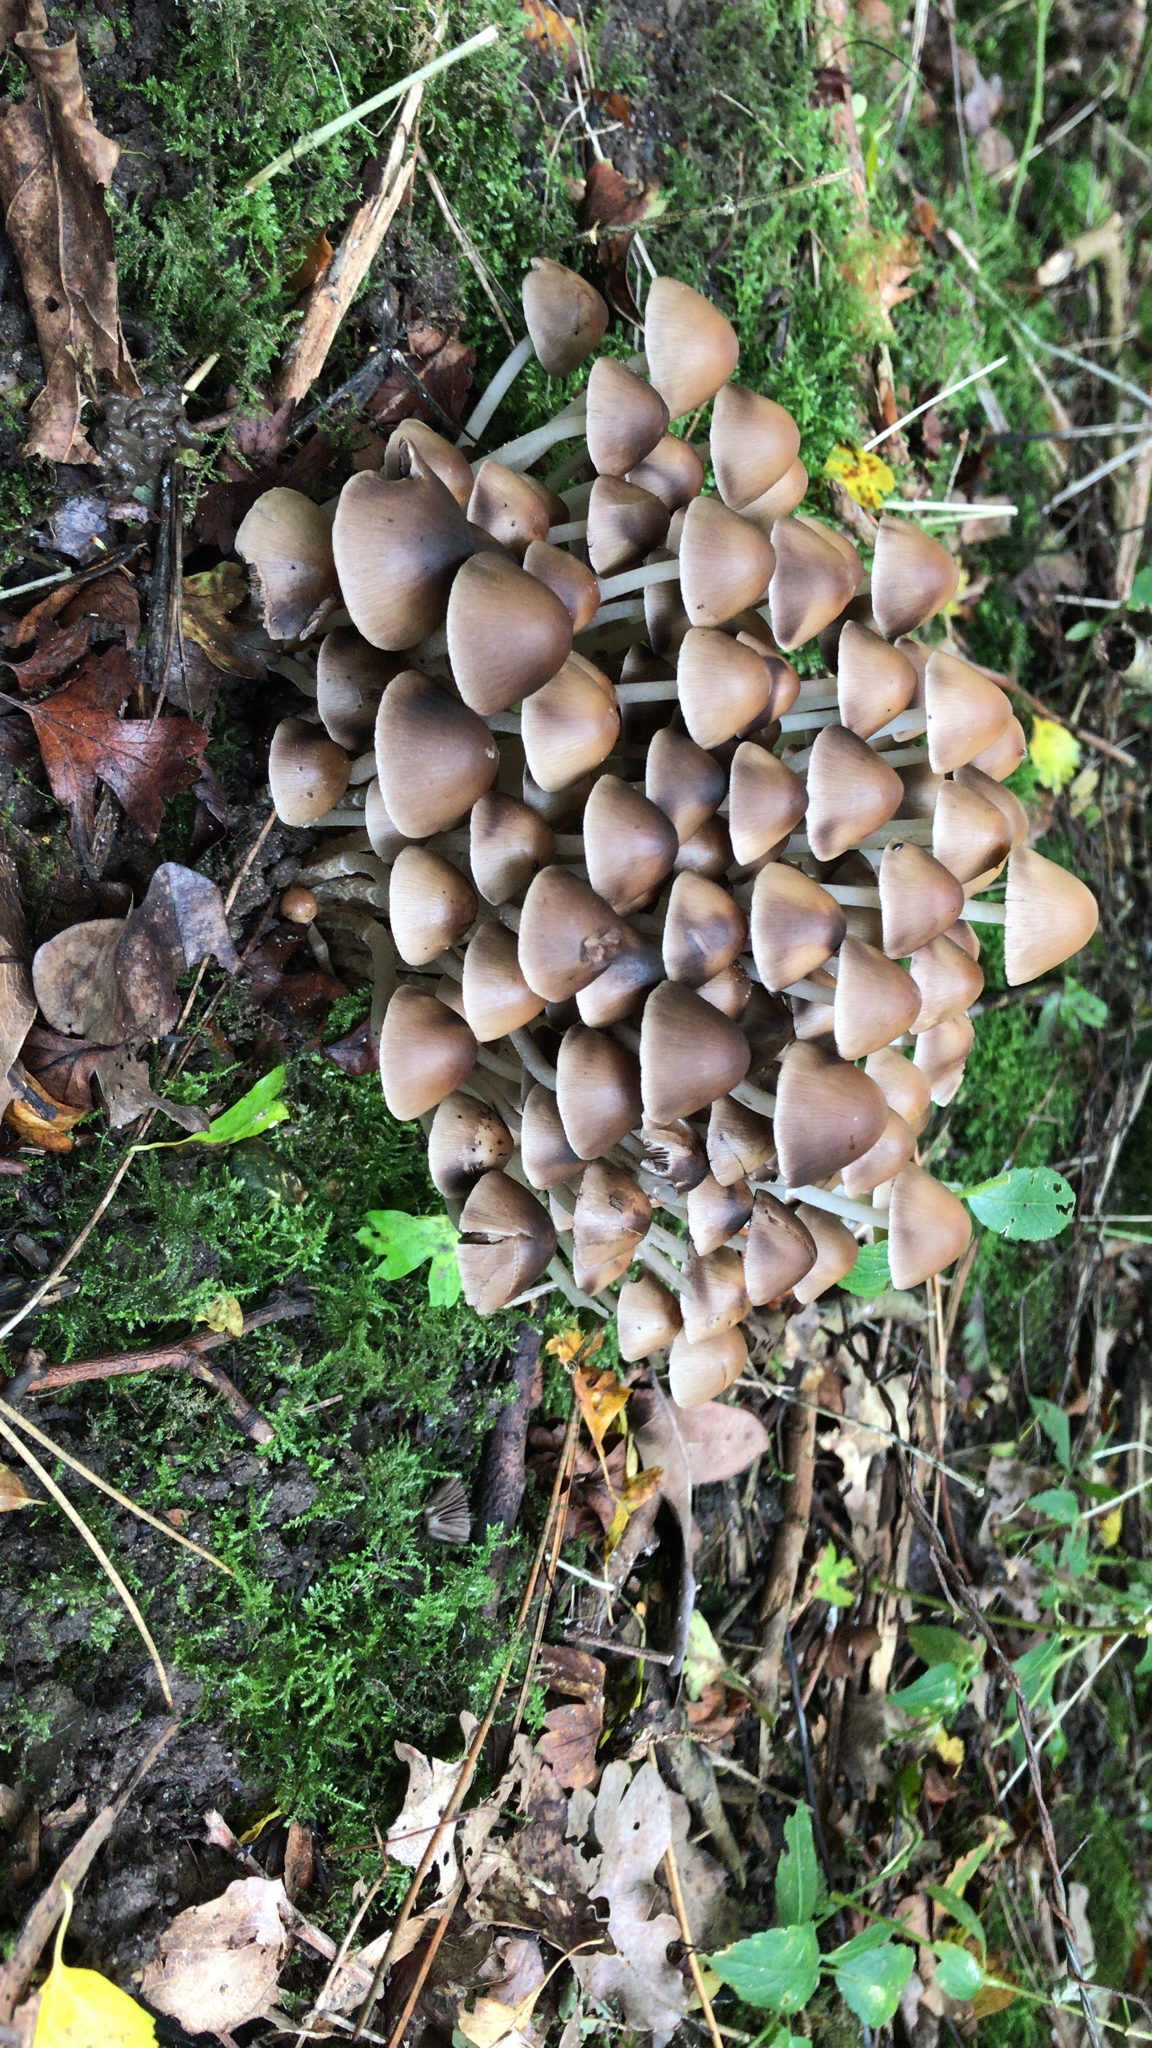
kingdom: Fungi
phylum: Basidiomycota
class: Agaricomycetes
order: Agaricales
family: Psathyrellaceae
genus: Britzelmayria
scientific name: Britzelmayria multipedata
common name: Clustered brittlestem
